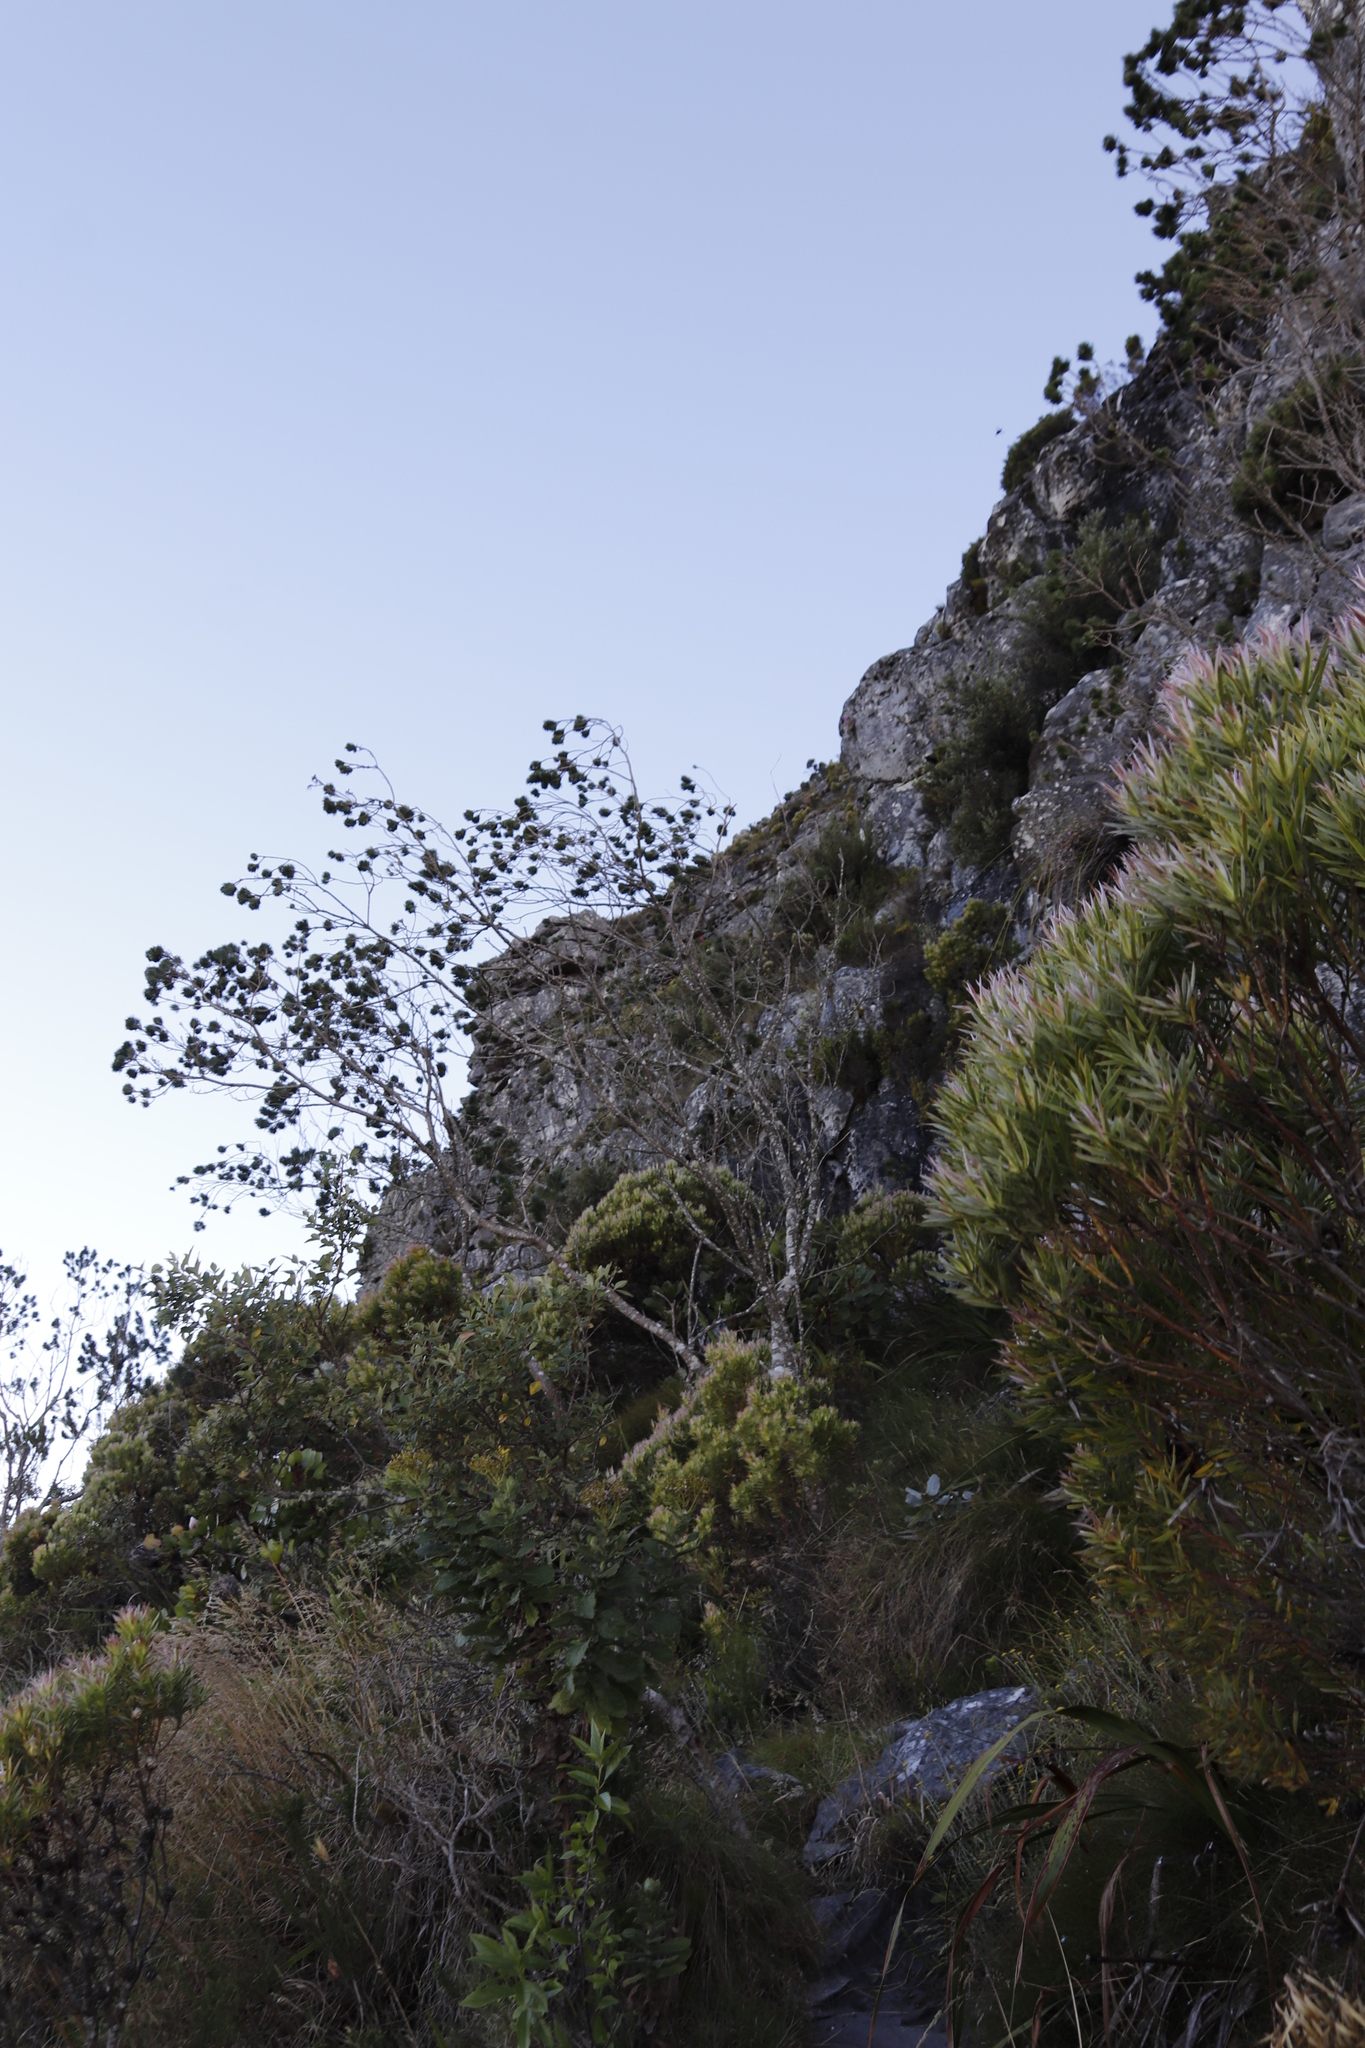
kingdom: Plantae
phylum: Tracheophyta
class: Magnoliopsida
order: Fabales
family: Fabaceae
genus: Psoralea
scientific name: Psoralea pinnata
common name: African scurfpea
